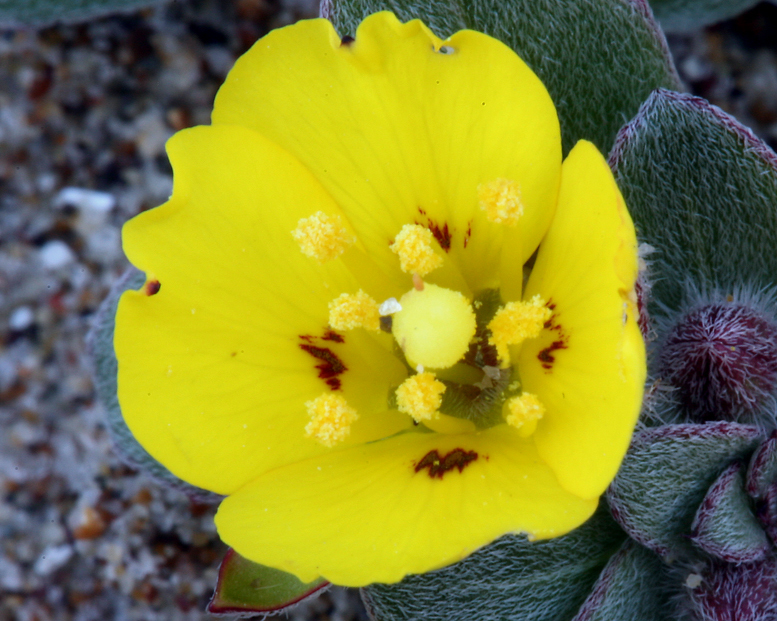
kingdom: Plantae
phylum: Tracheophyta
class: Magnoliopsida
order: Myrtales
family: Onagraceae
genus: Camissoniopsis
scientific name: Camissoniopsis cheiranthifolia
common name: Beach suncup
